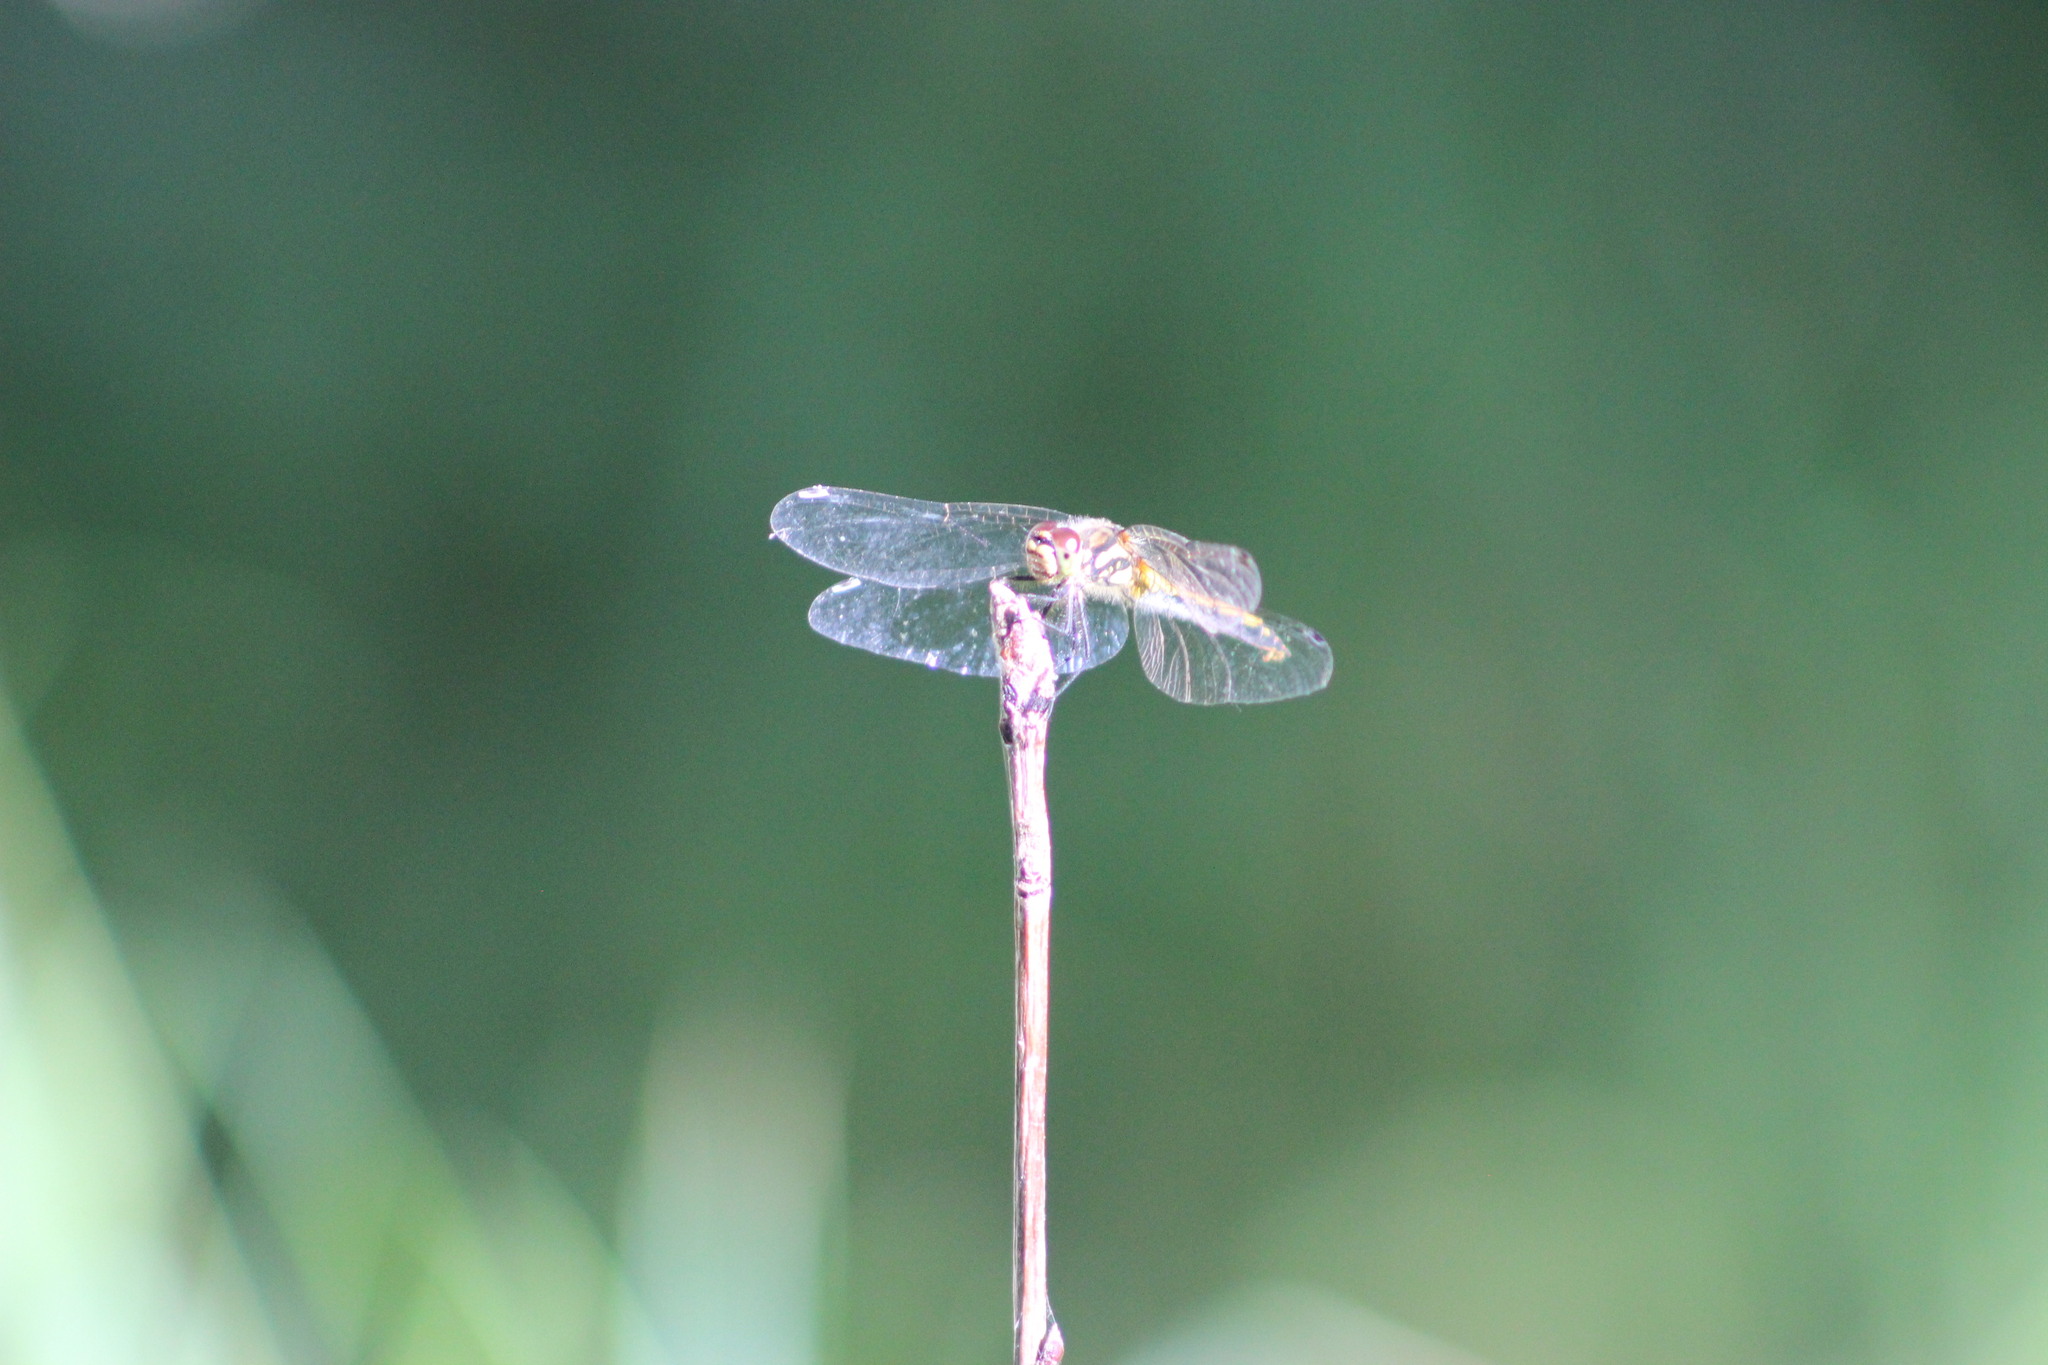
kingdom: Animalia
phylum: Arthropoda
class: Insecta
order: Odonata
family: Libellulidae
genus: Sympetrum
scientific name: Sympetrum danae
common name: Black darter
